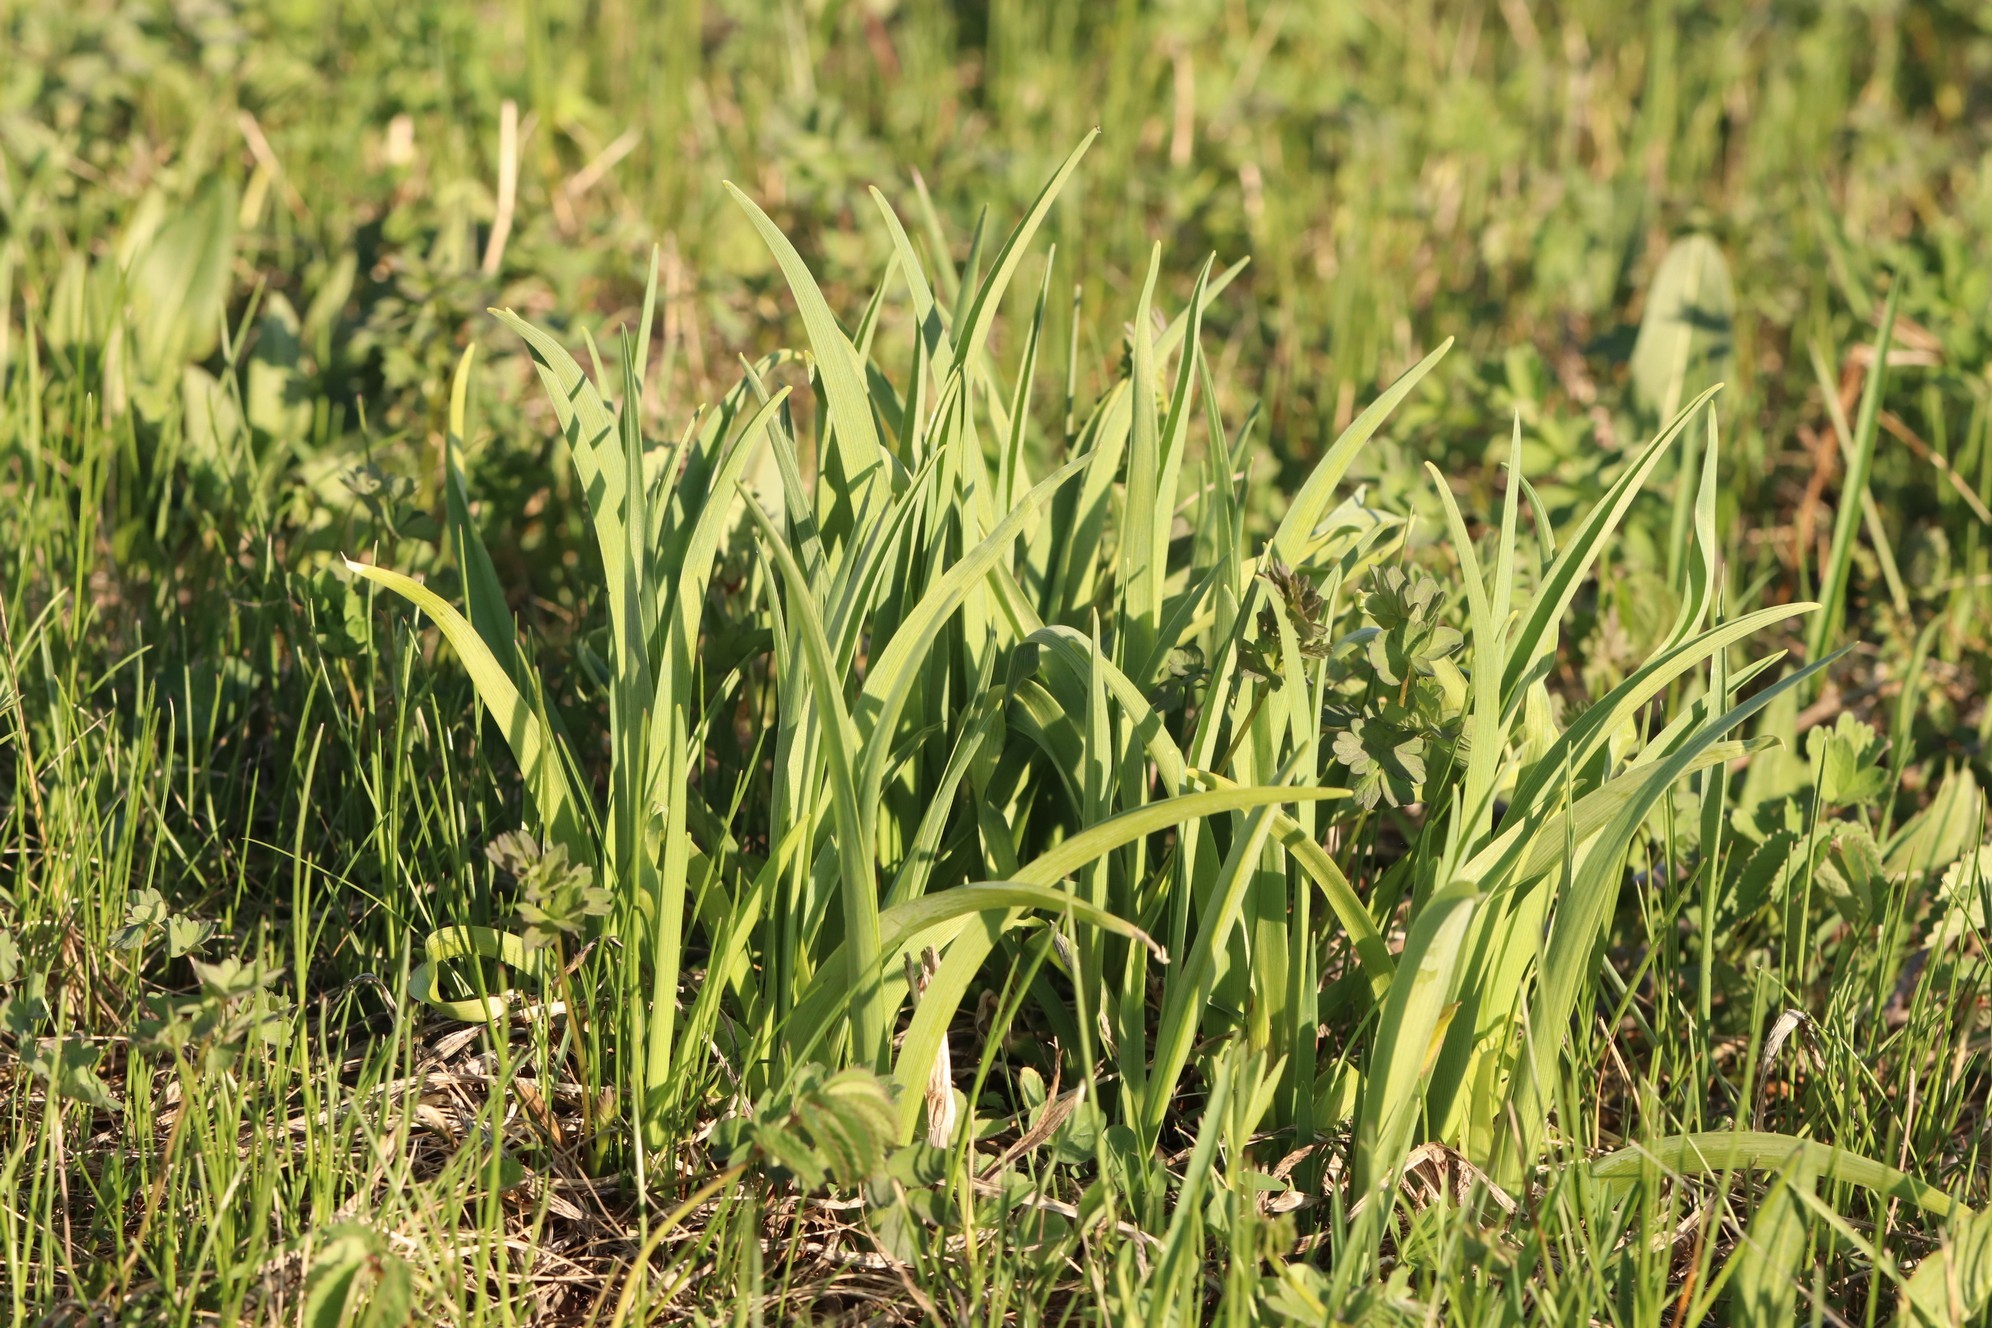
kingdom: Plantae
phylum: Tracheophyta
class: Liliopsida
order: Asparagales
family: Asphodelaceae
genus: Hemerocallis
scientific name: Hemerocallis minor
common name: Small daylily
